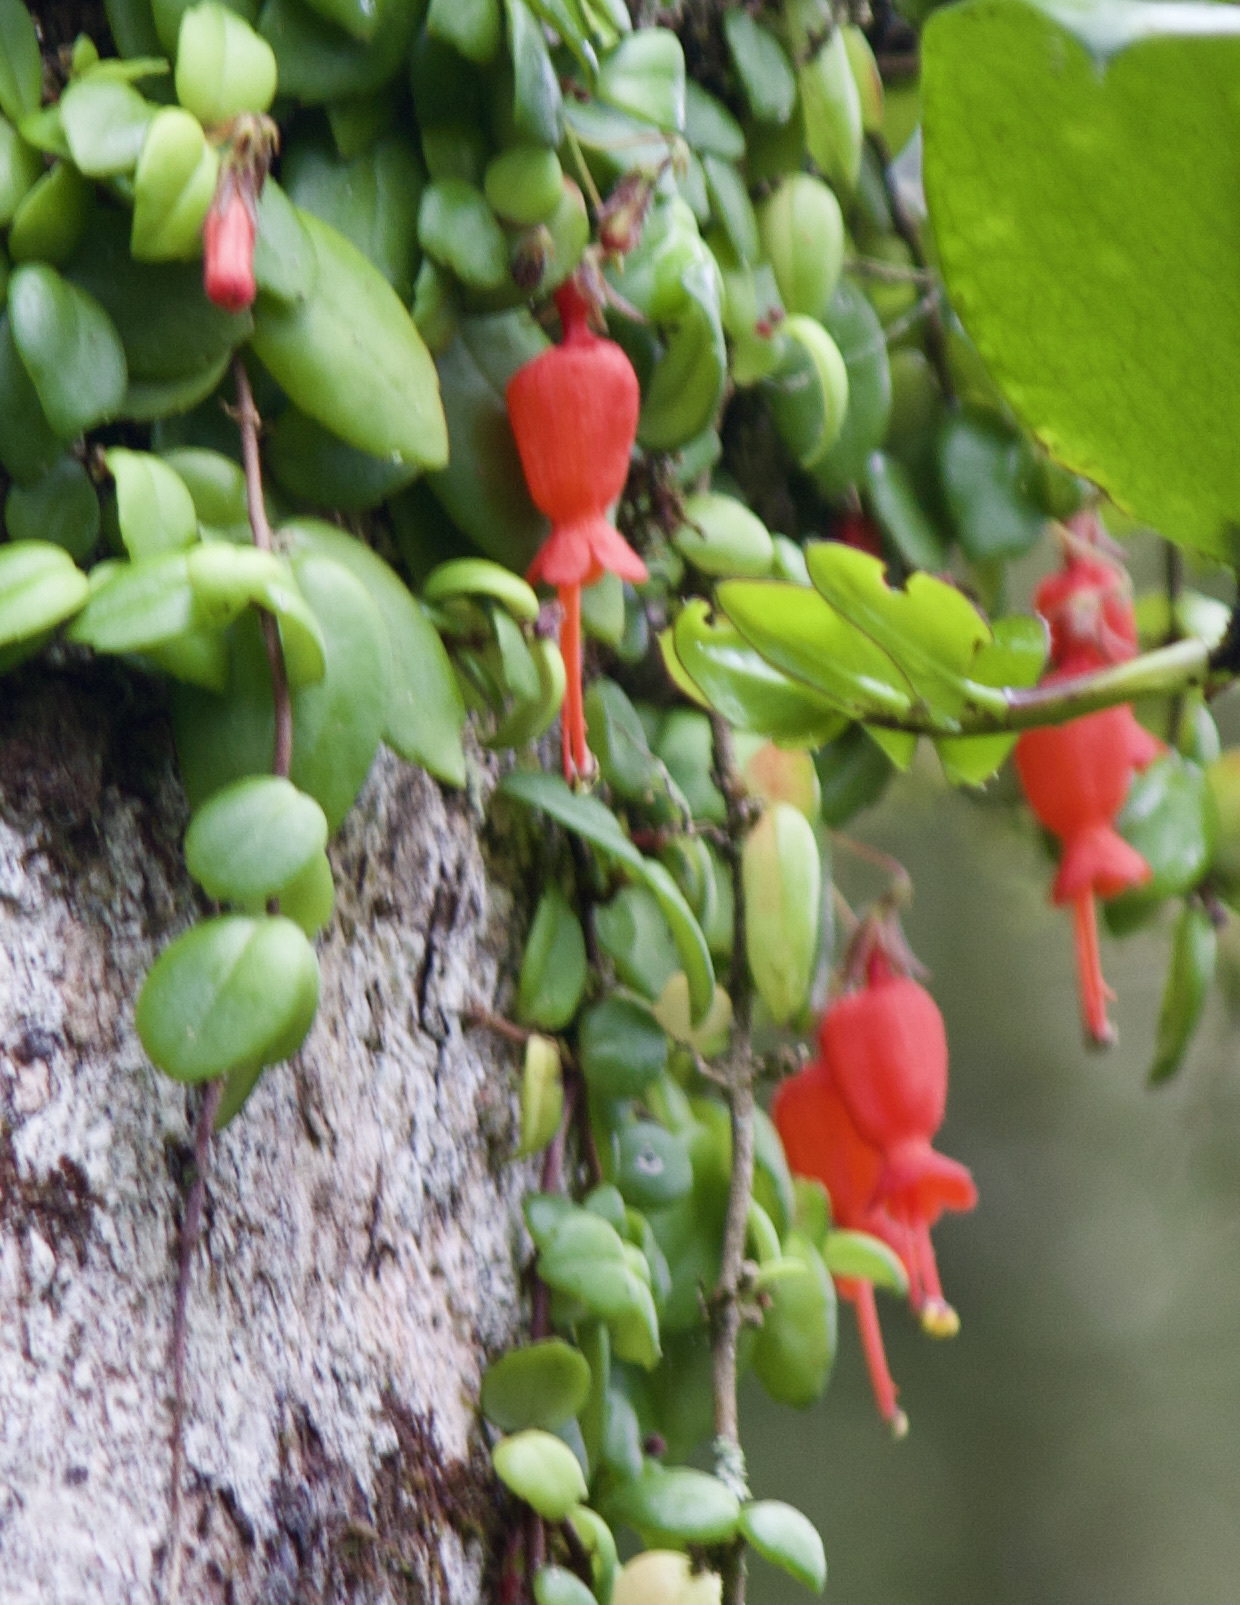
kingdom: Plantae
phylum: Tracheophyta
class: Magnoliopsida
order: Lamiales
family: Gesneriaceae
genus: Sarmienta
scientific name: Sarmienta scandens
